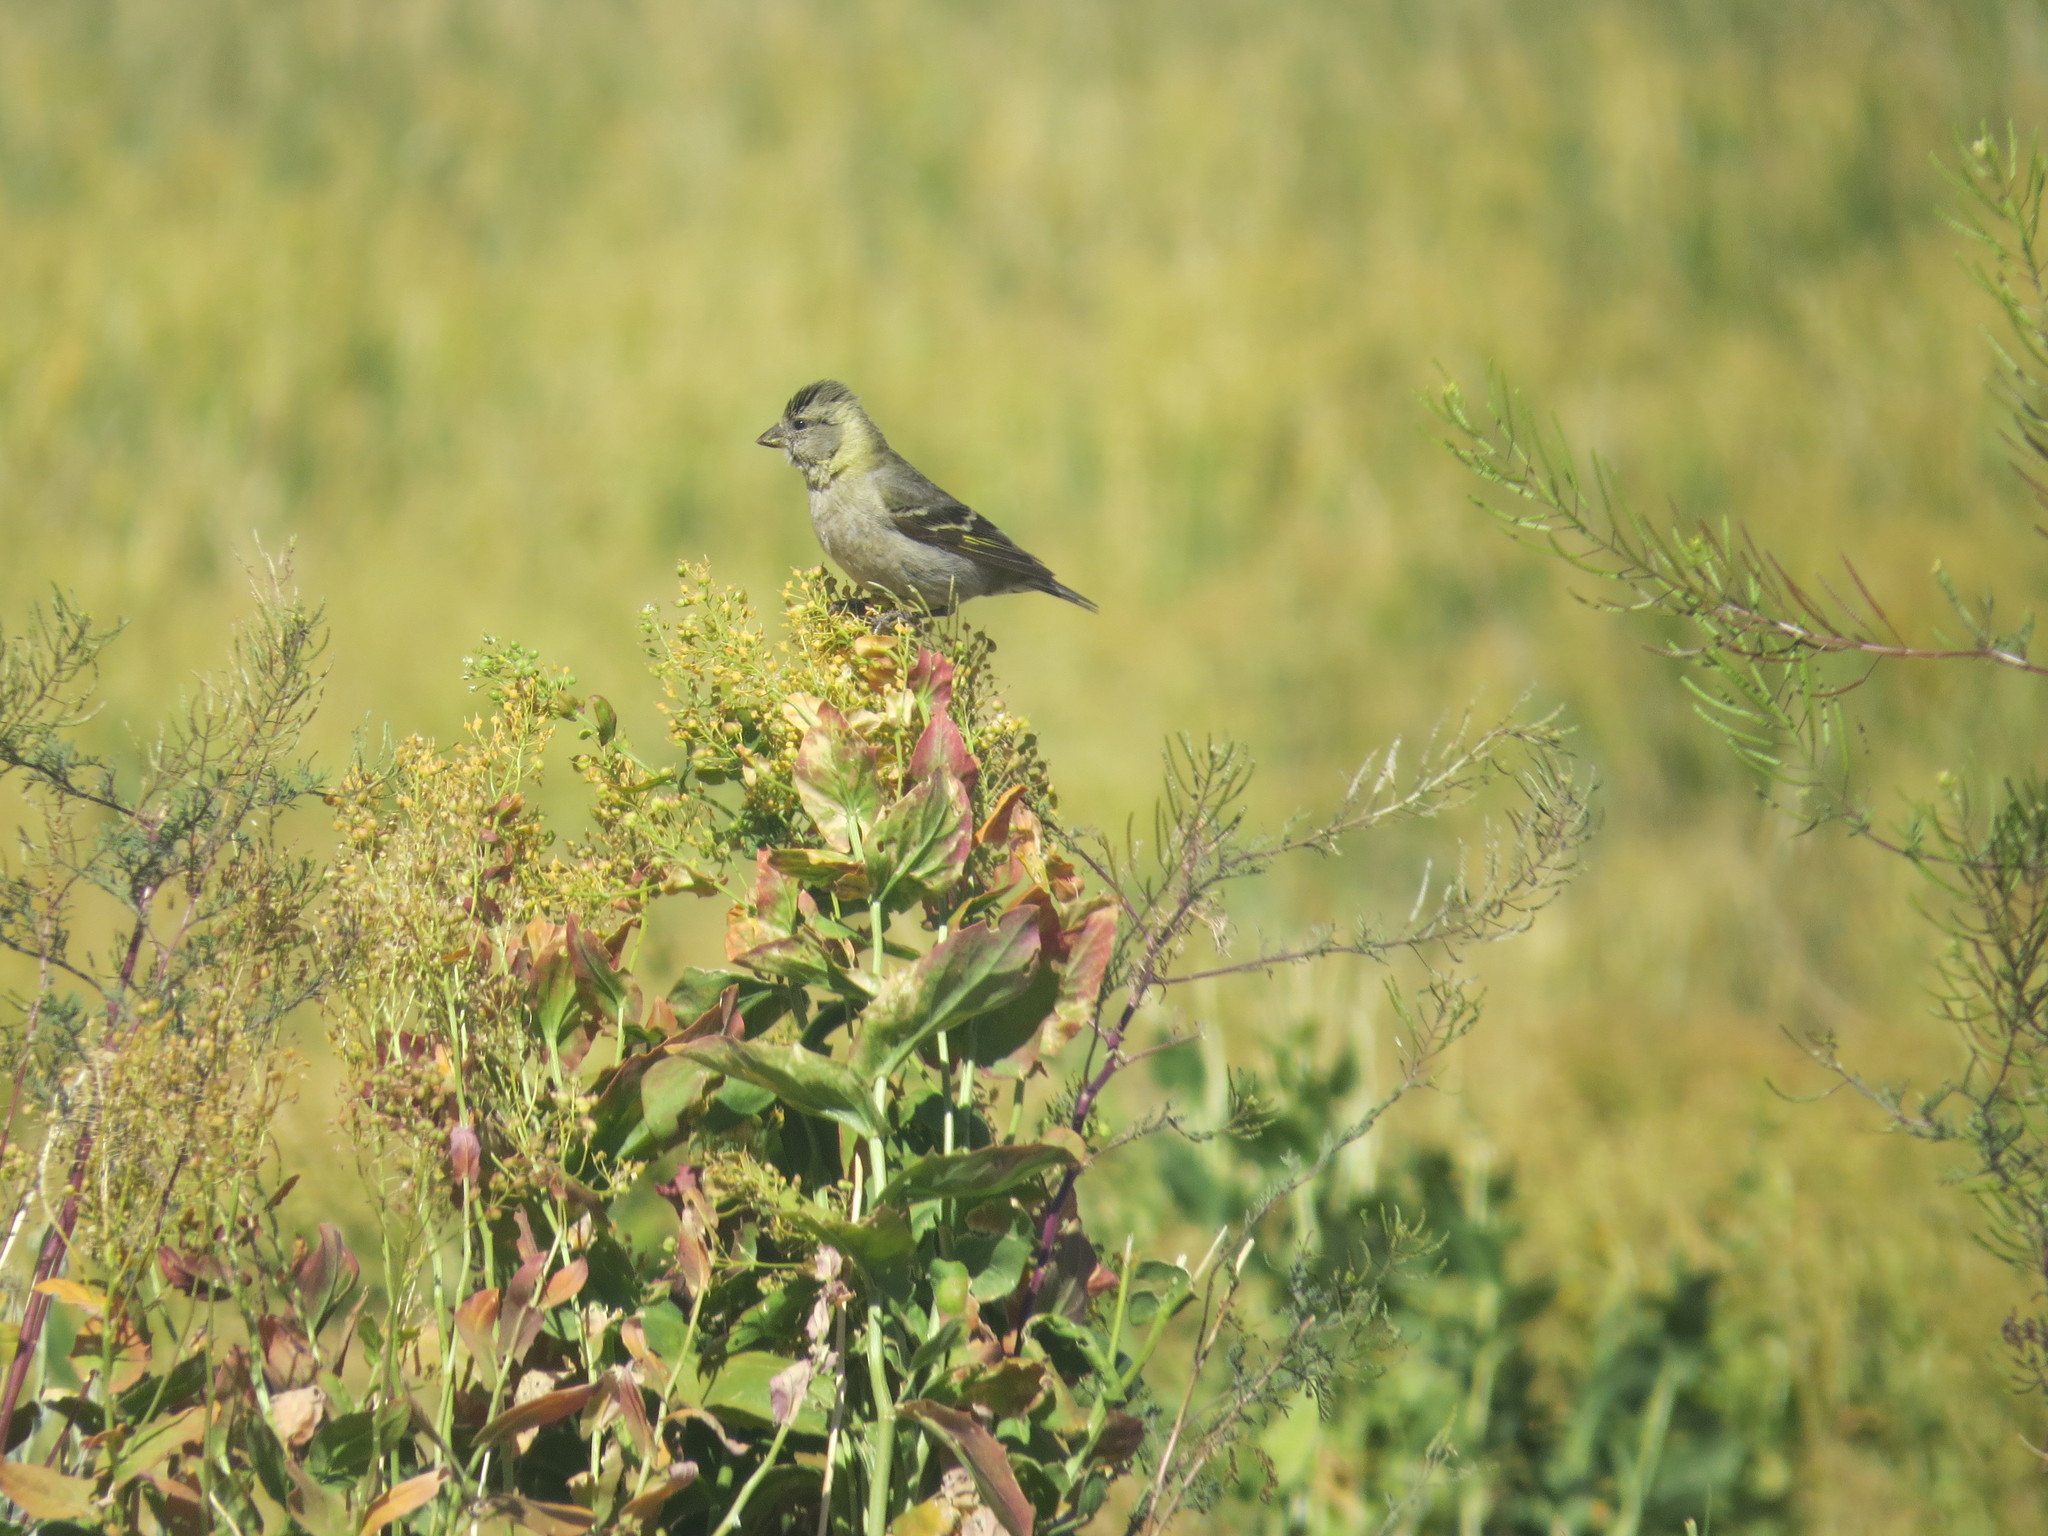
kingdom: Animalia
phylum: Chordata
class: Aves
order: Passeriformes
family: Fringillidae
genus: Spinus
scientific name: Spinus barbatus
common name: Black-chinned siskin
